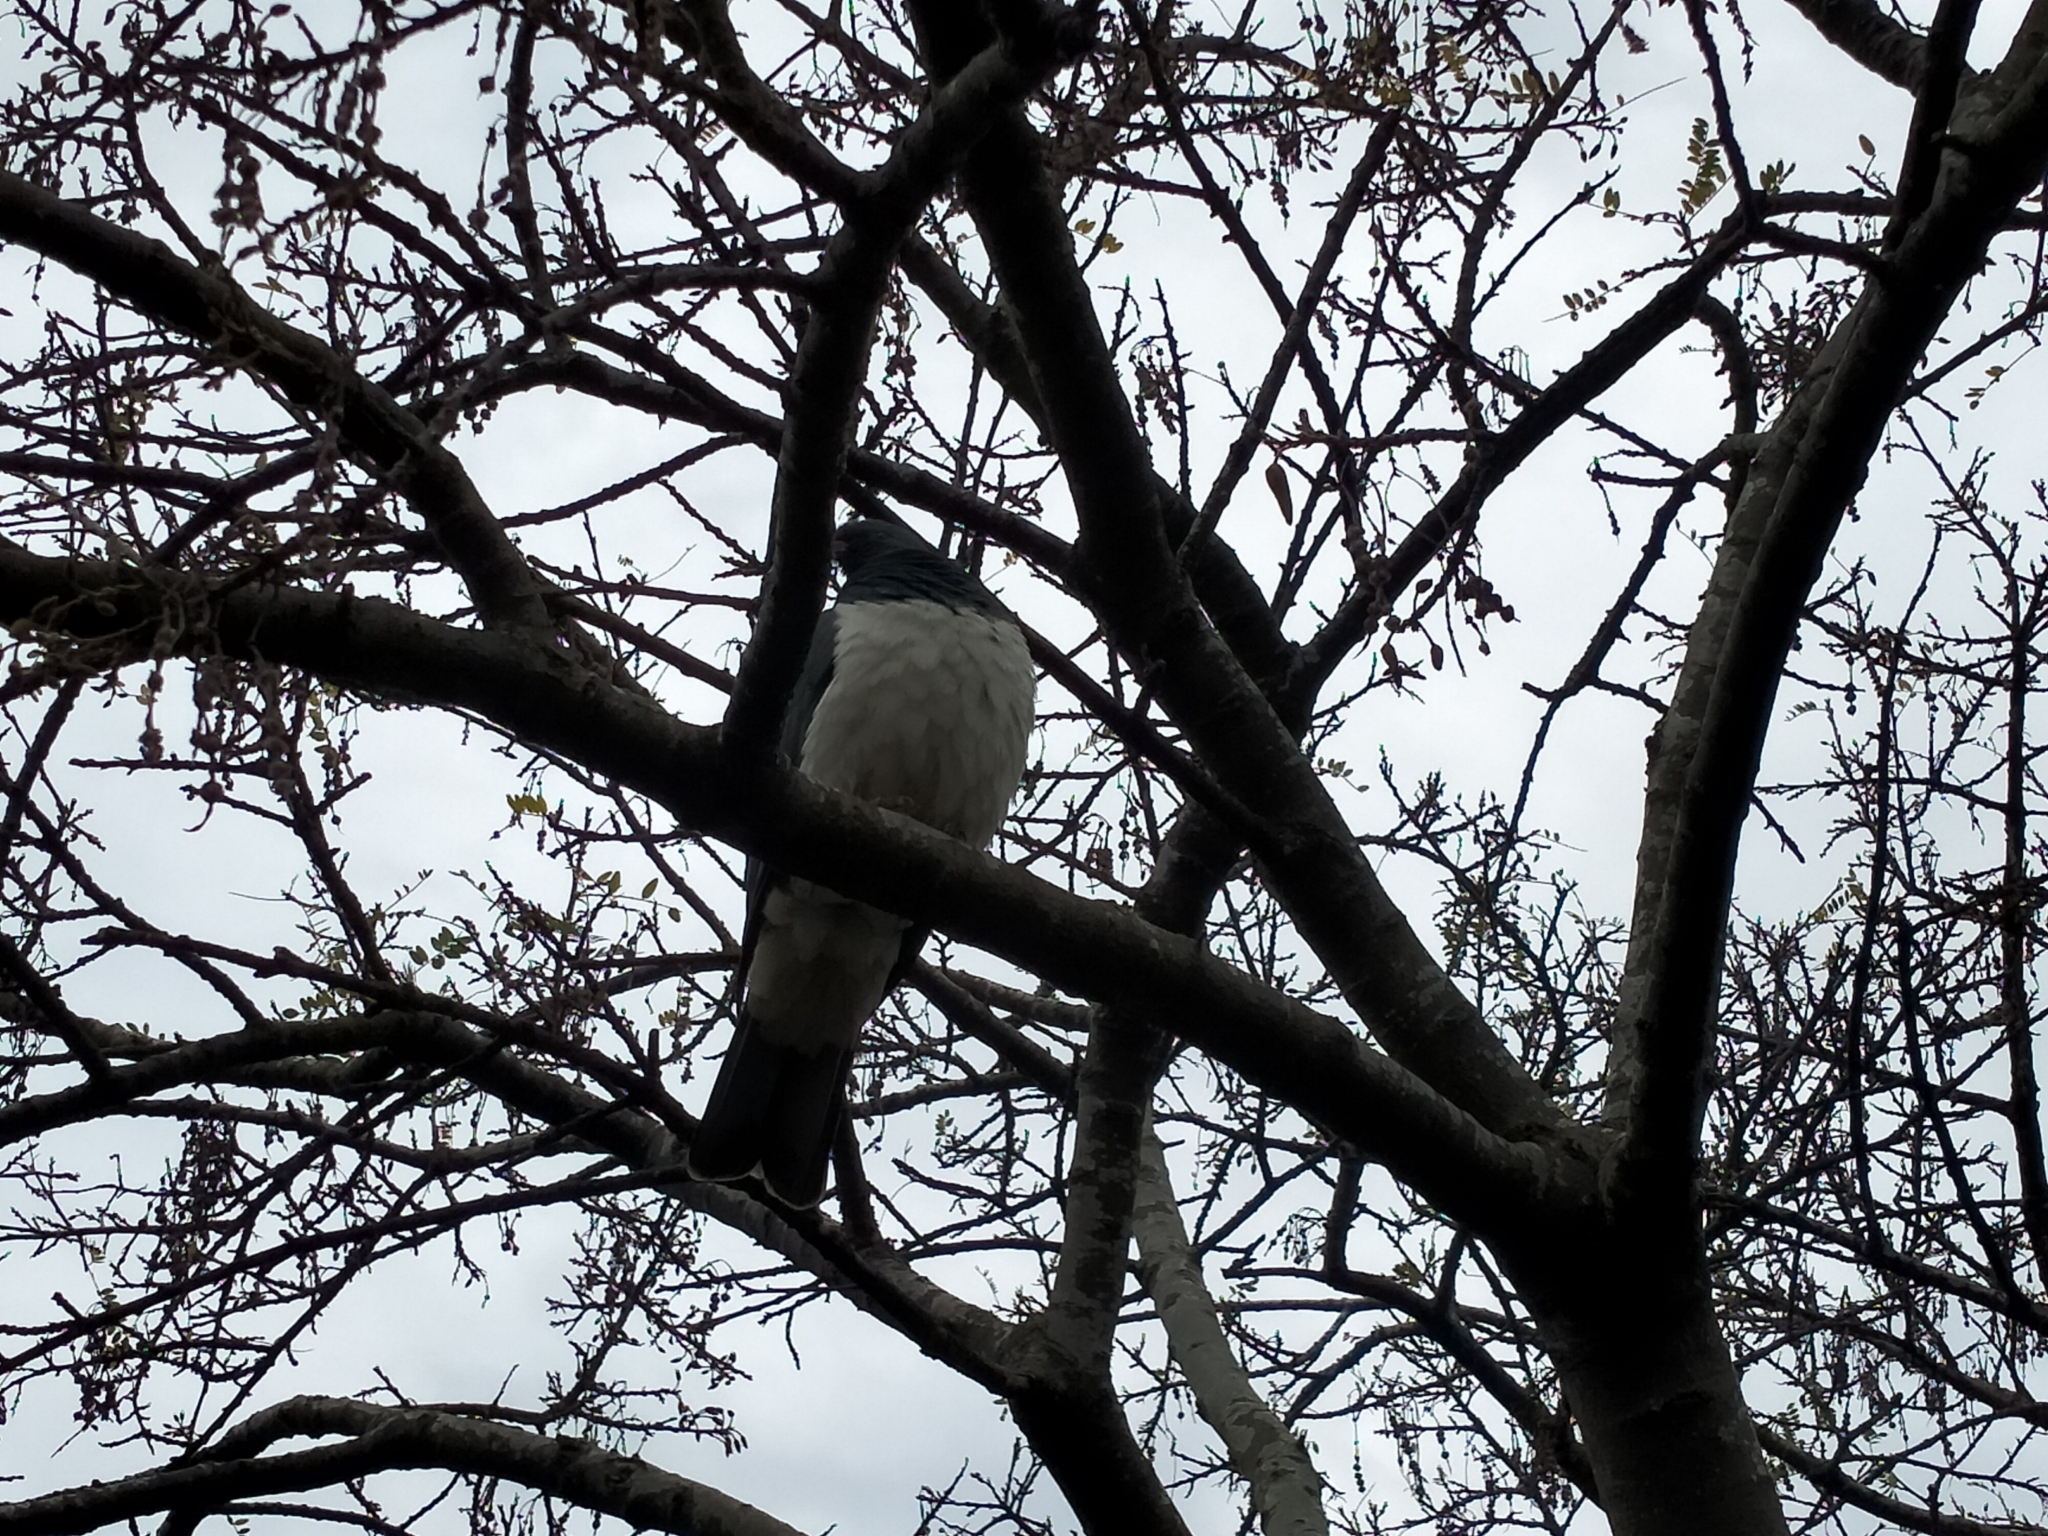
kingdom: Animalia
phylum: Chordata
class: Aves
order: Columbiformes
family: Columbidae
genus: Hemiphaga
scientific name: Hemiphaga novaeseelandiae
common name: New zealand pigeon
